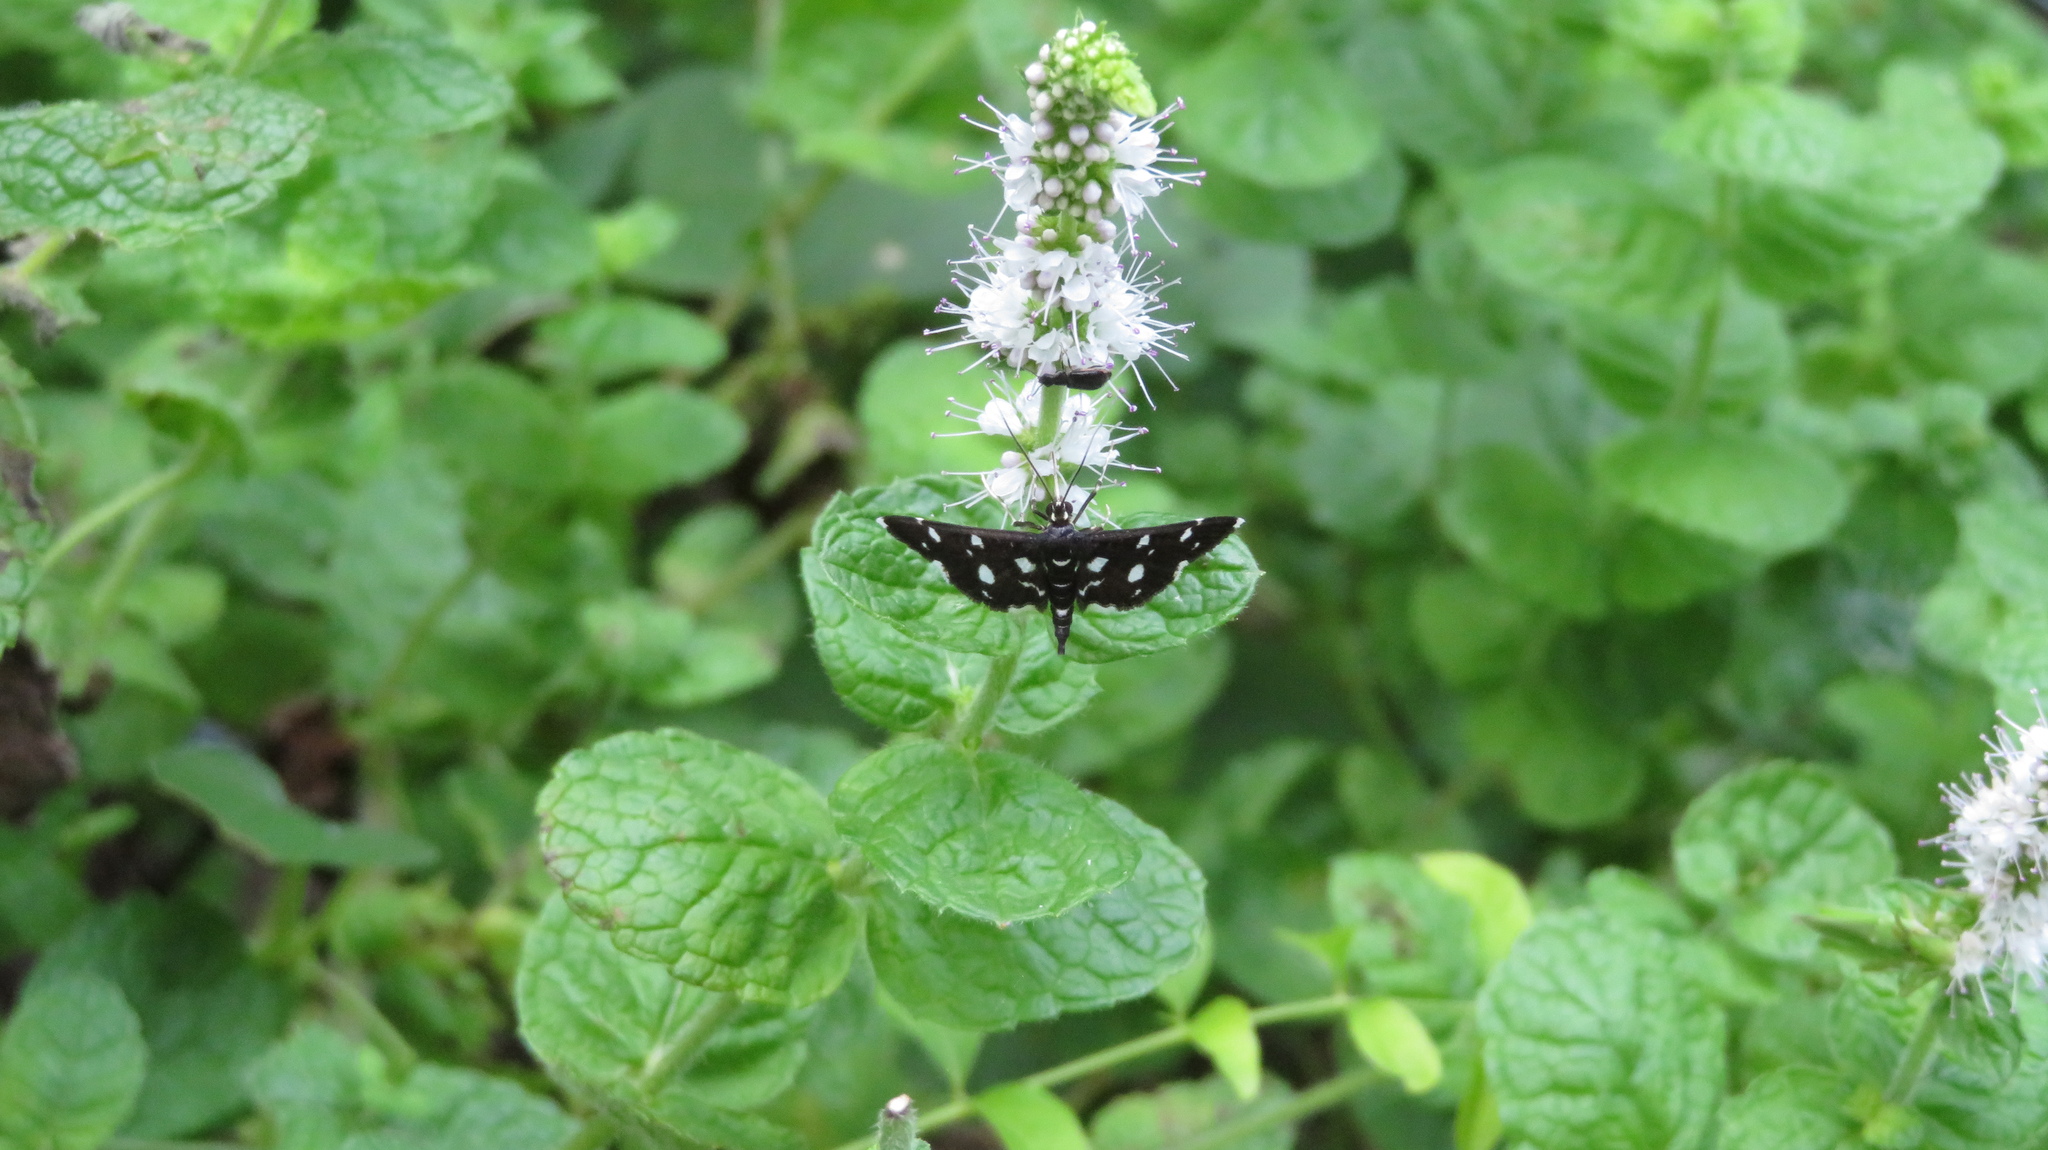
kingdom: Animalia
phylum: Arthropoda
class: Insecta
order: Lepidoptera
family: Crambidae
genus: Bocchoris
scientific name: Bocchoris inspersalis
